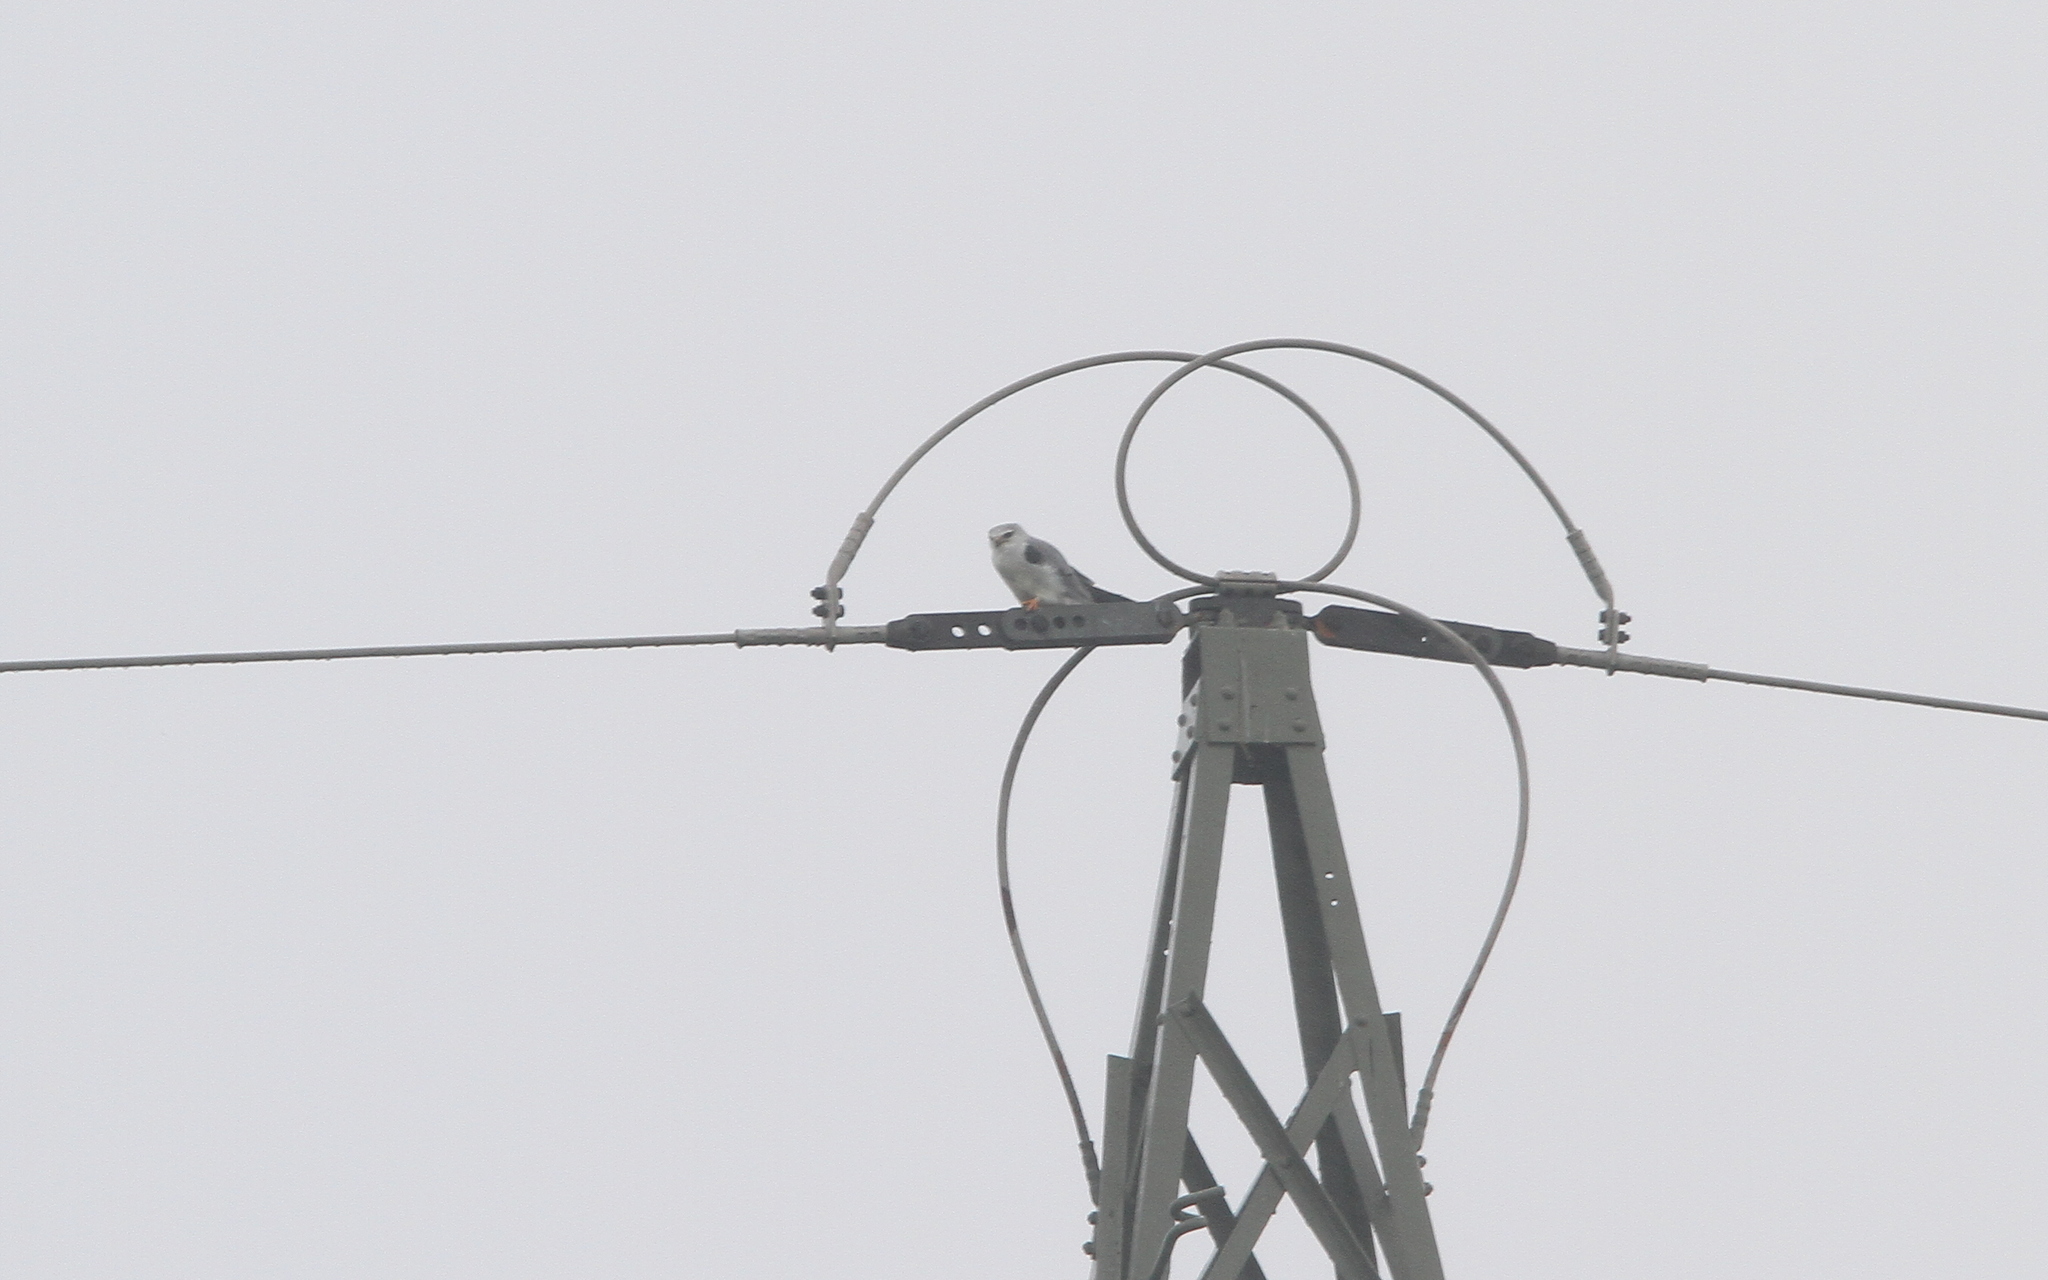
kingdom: Animalia
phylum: Chordata
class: Aves
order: Accipitriformes
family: Accipitridae
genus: Elanus
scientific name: Elanus caeruleus
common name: Black-winged kite
